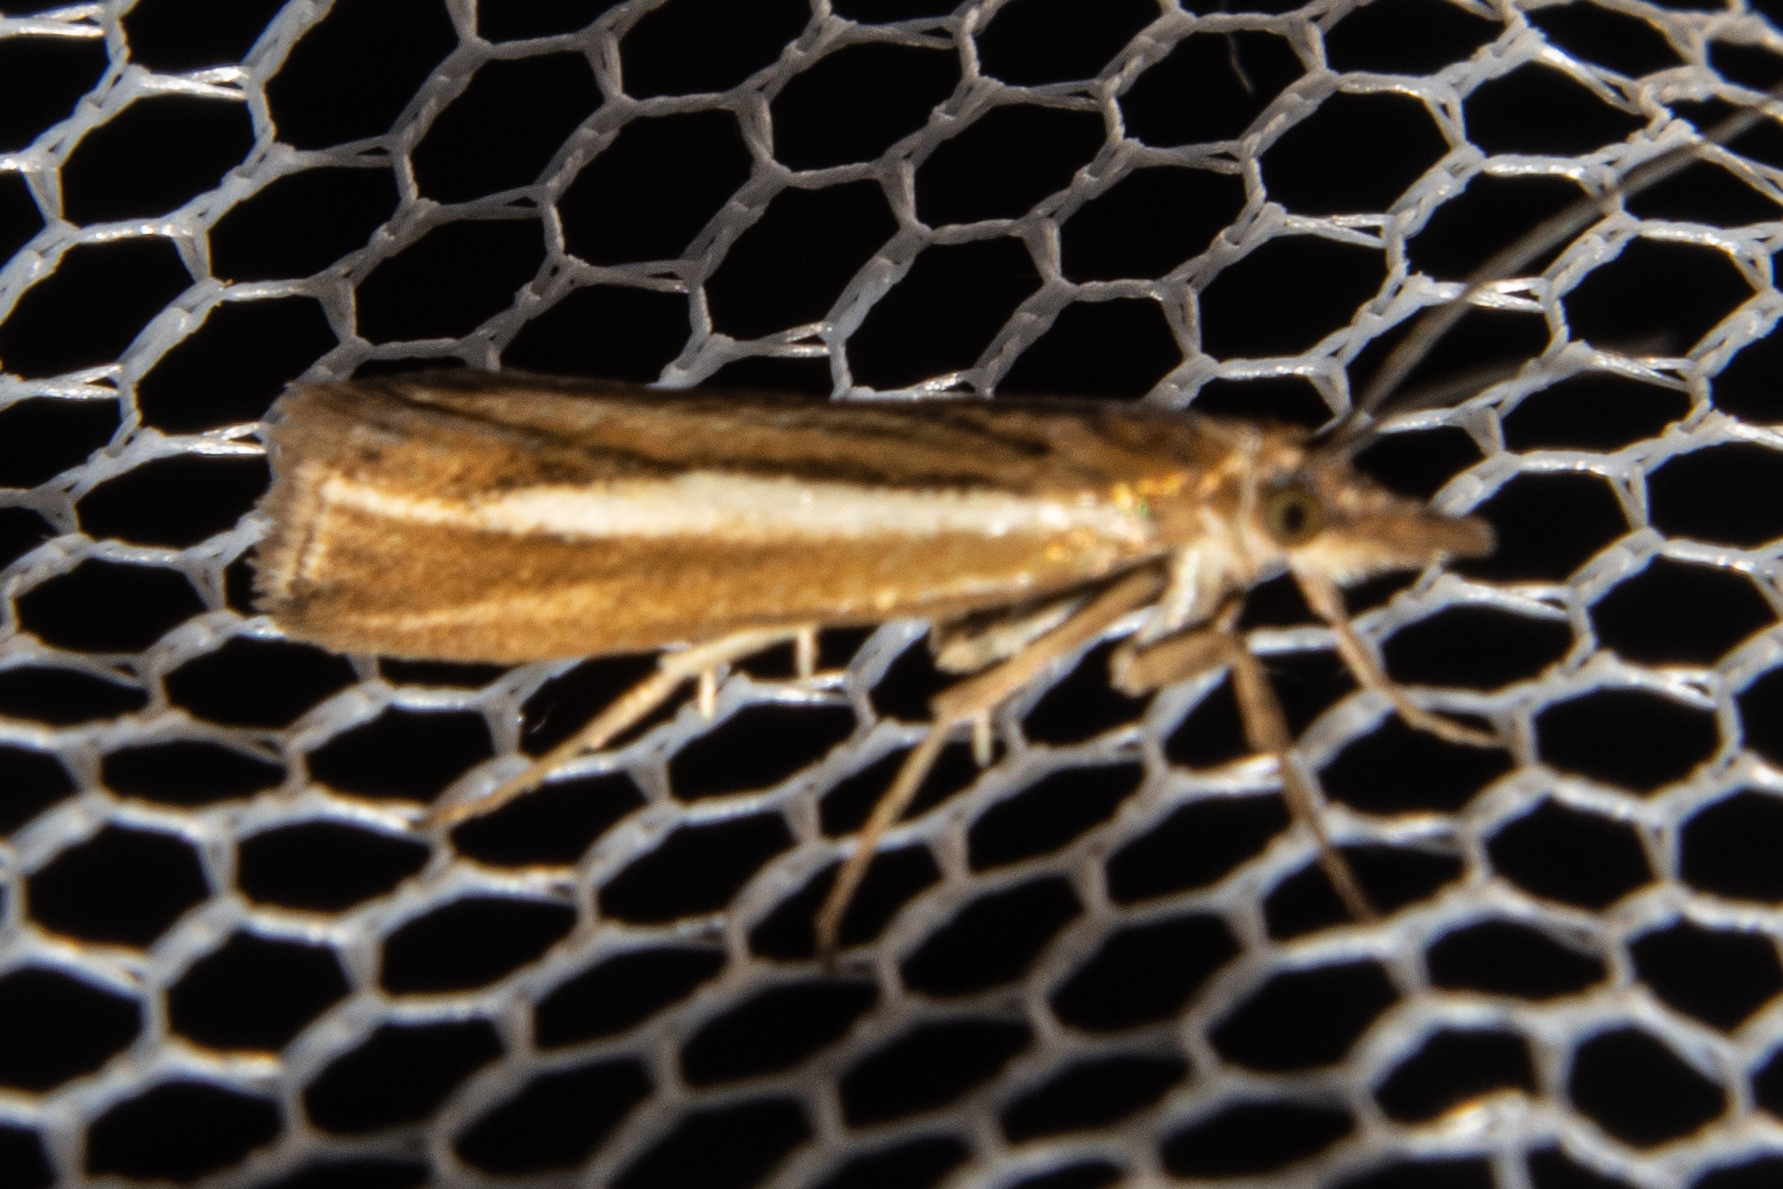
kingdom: Animalia
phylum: Arthropoda
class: Insecta
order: Lepidoptera
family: Crambidae
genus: Orocrambus
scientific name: Orocrambus melitastes
